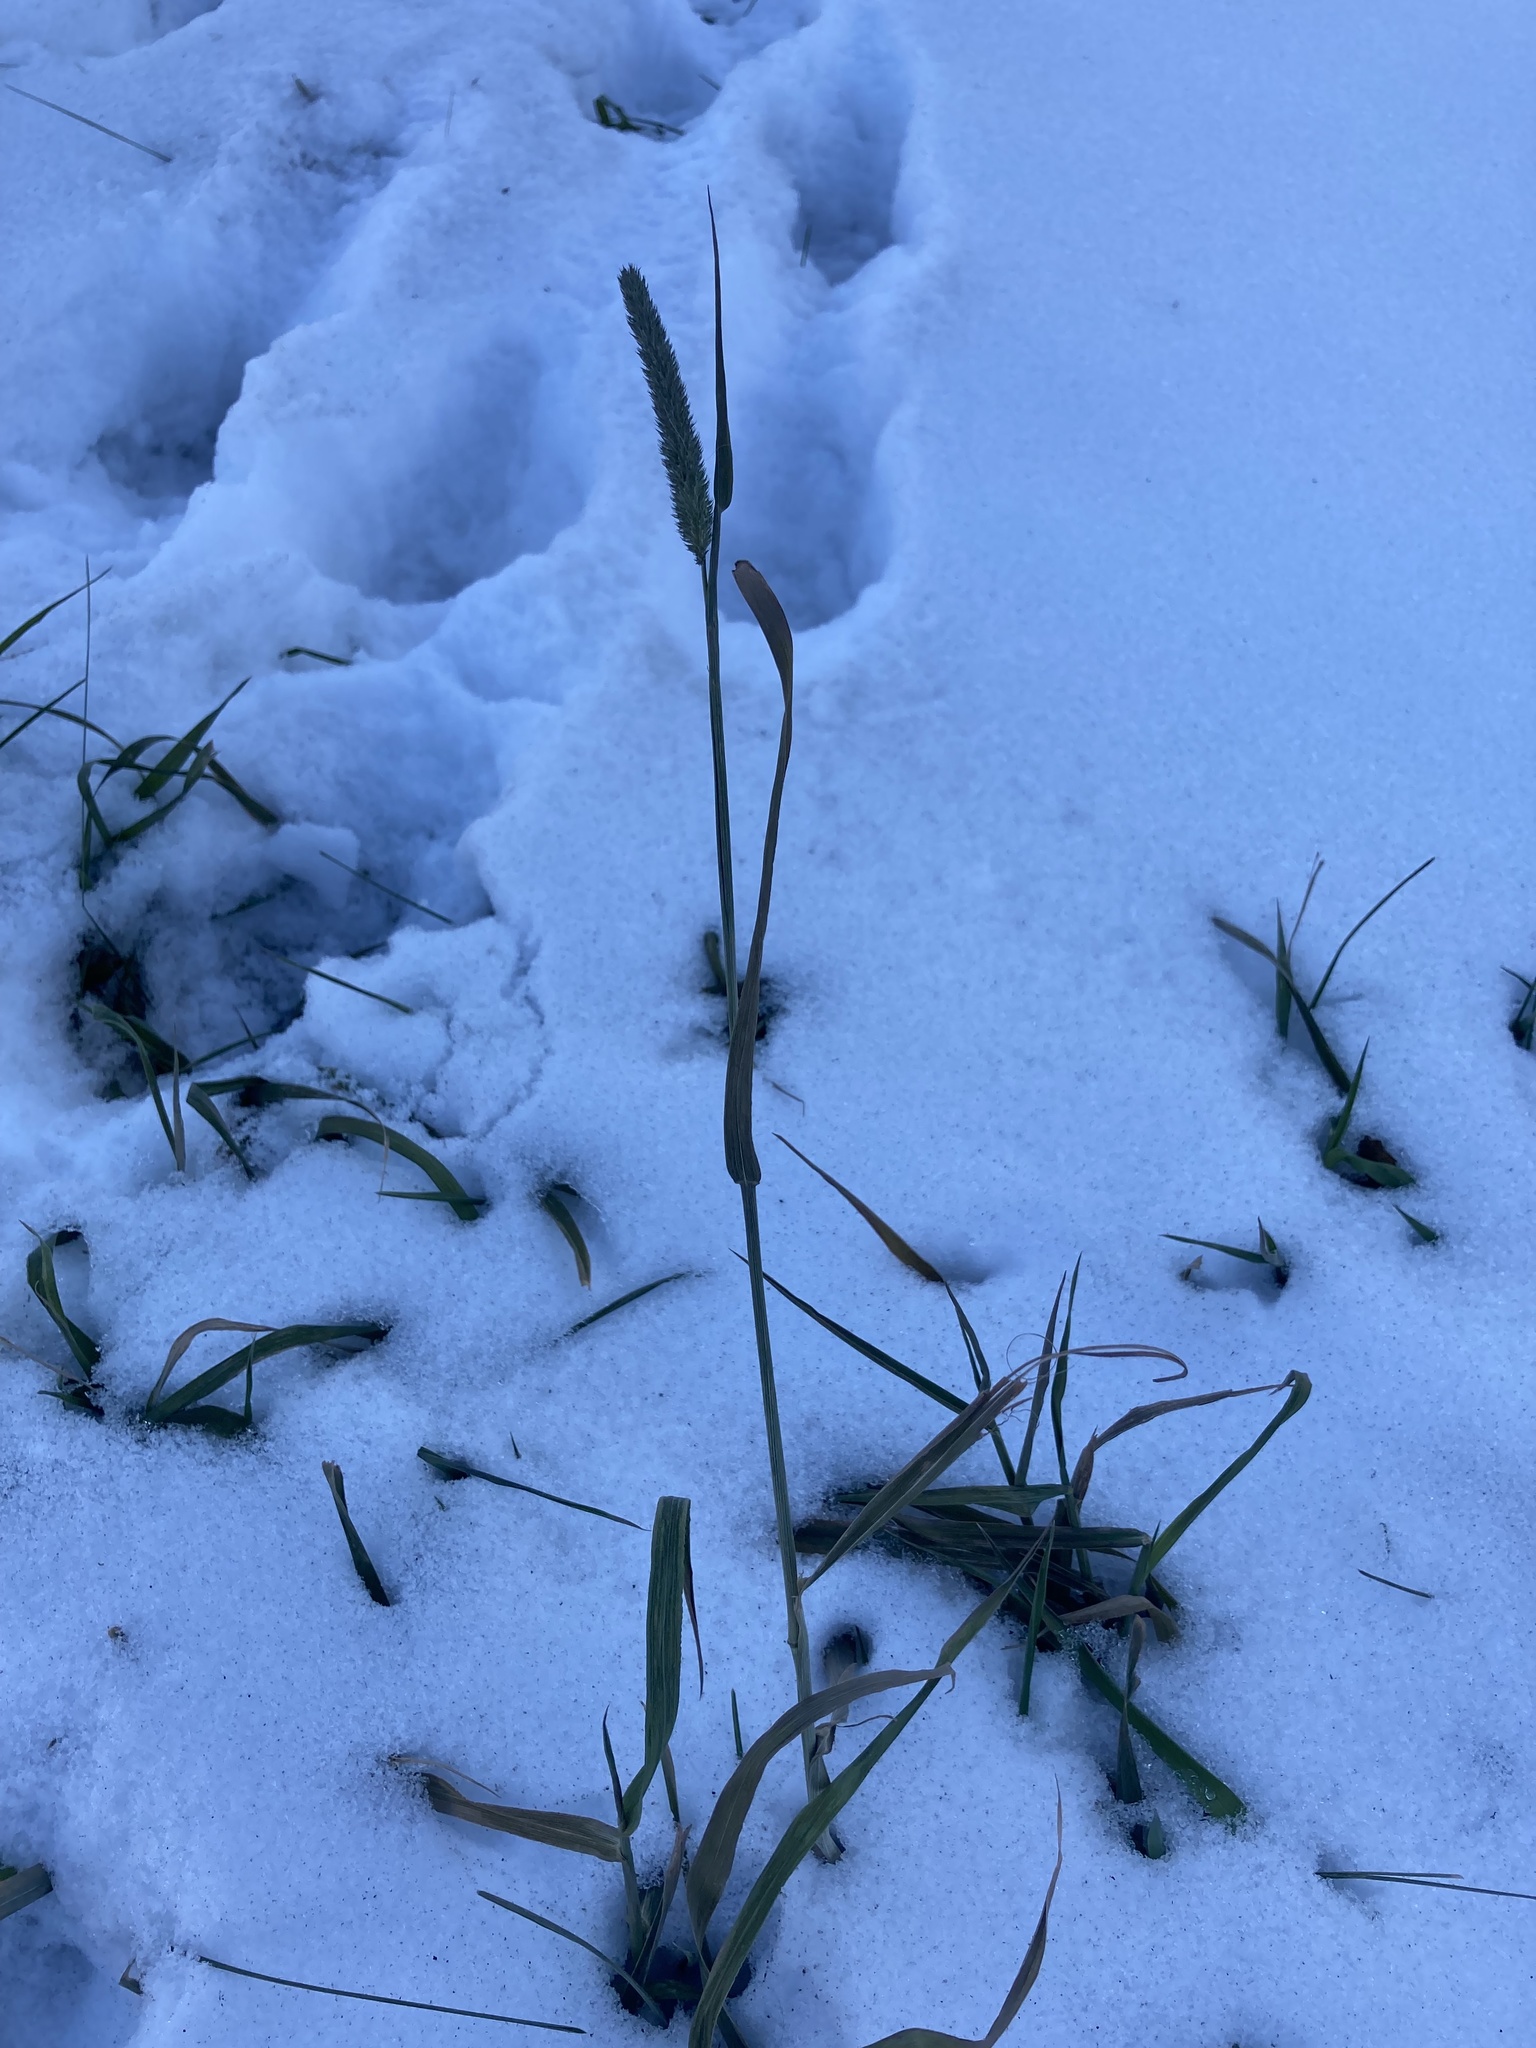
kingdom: Plantae
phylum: Tracheophyta
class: Liliopsida
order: Poales
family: Poaceae
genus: Phleum
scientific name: Phleum pratense
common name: Timothy grass
